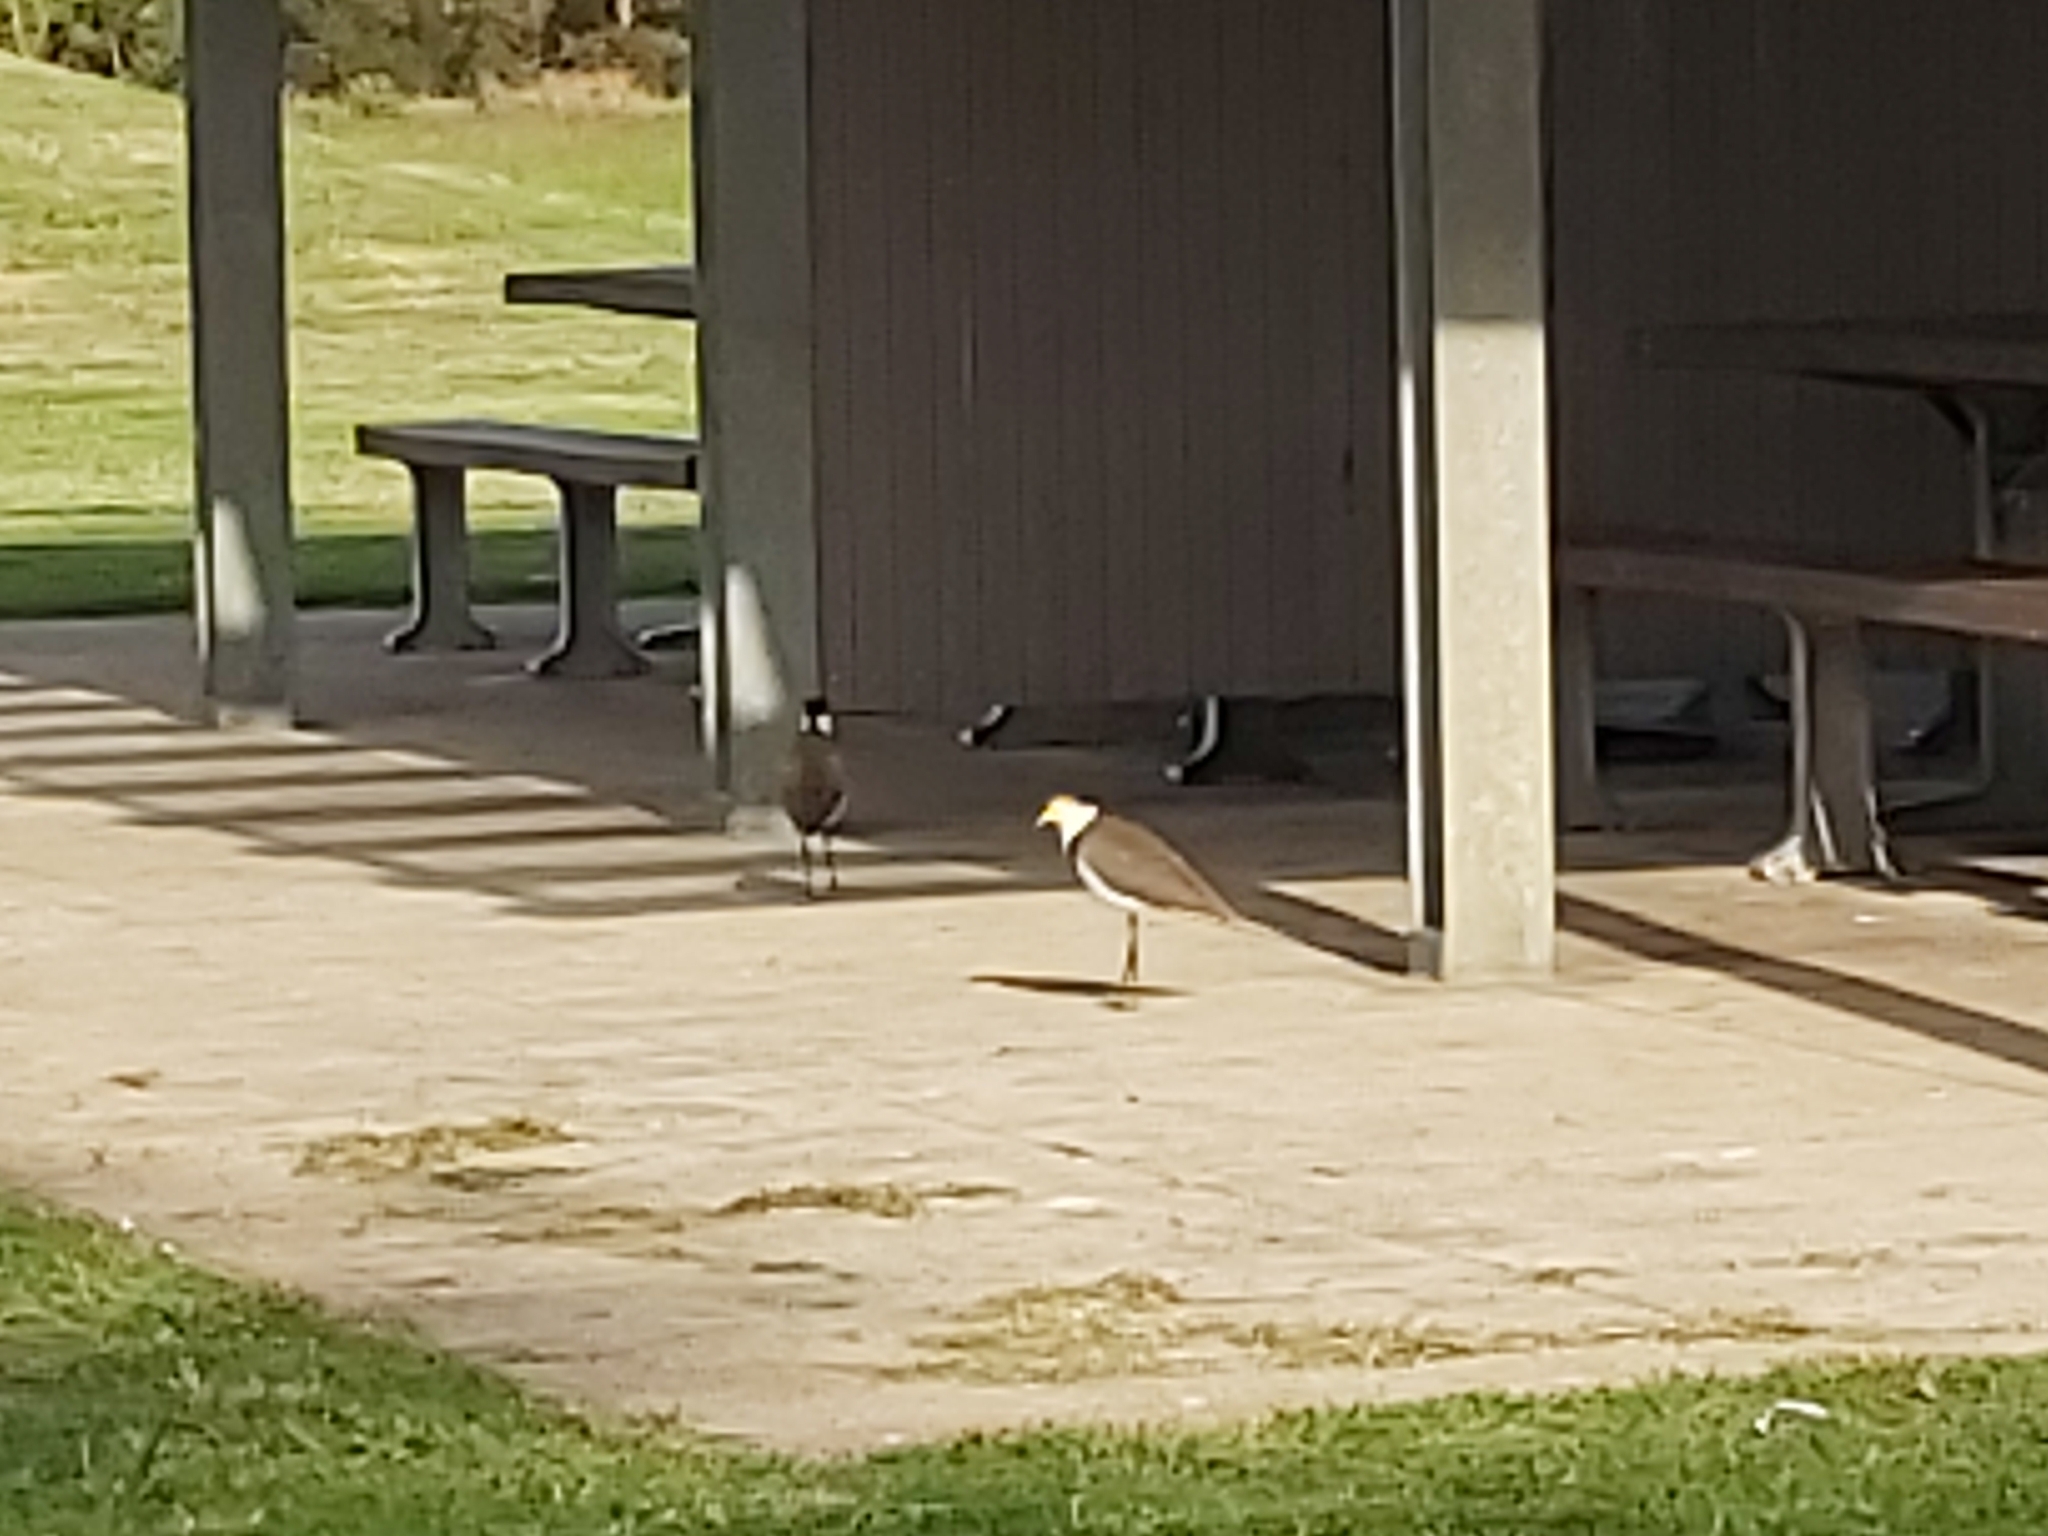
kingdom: Animalia
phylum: Chordata
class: Aves
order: Charadriiformes
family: Charadriidae
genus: Vanellus
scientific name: Vanellus miles
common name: Masked lapwing
